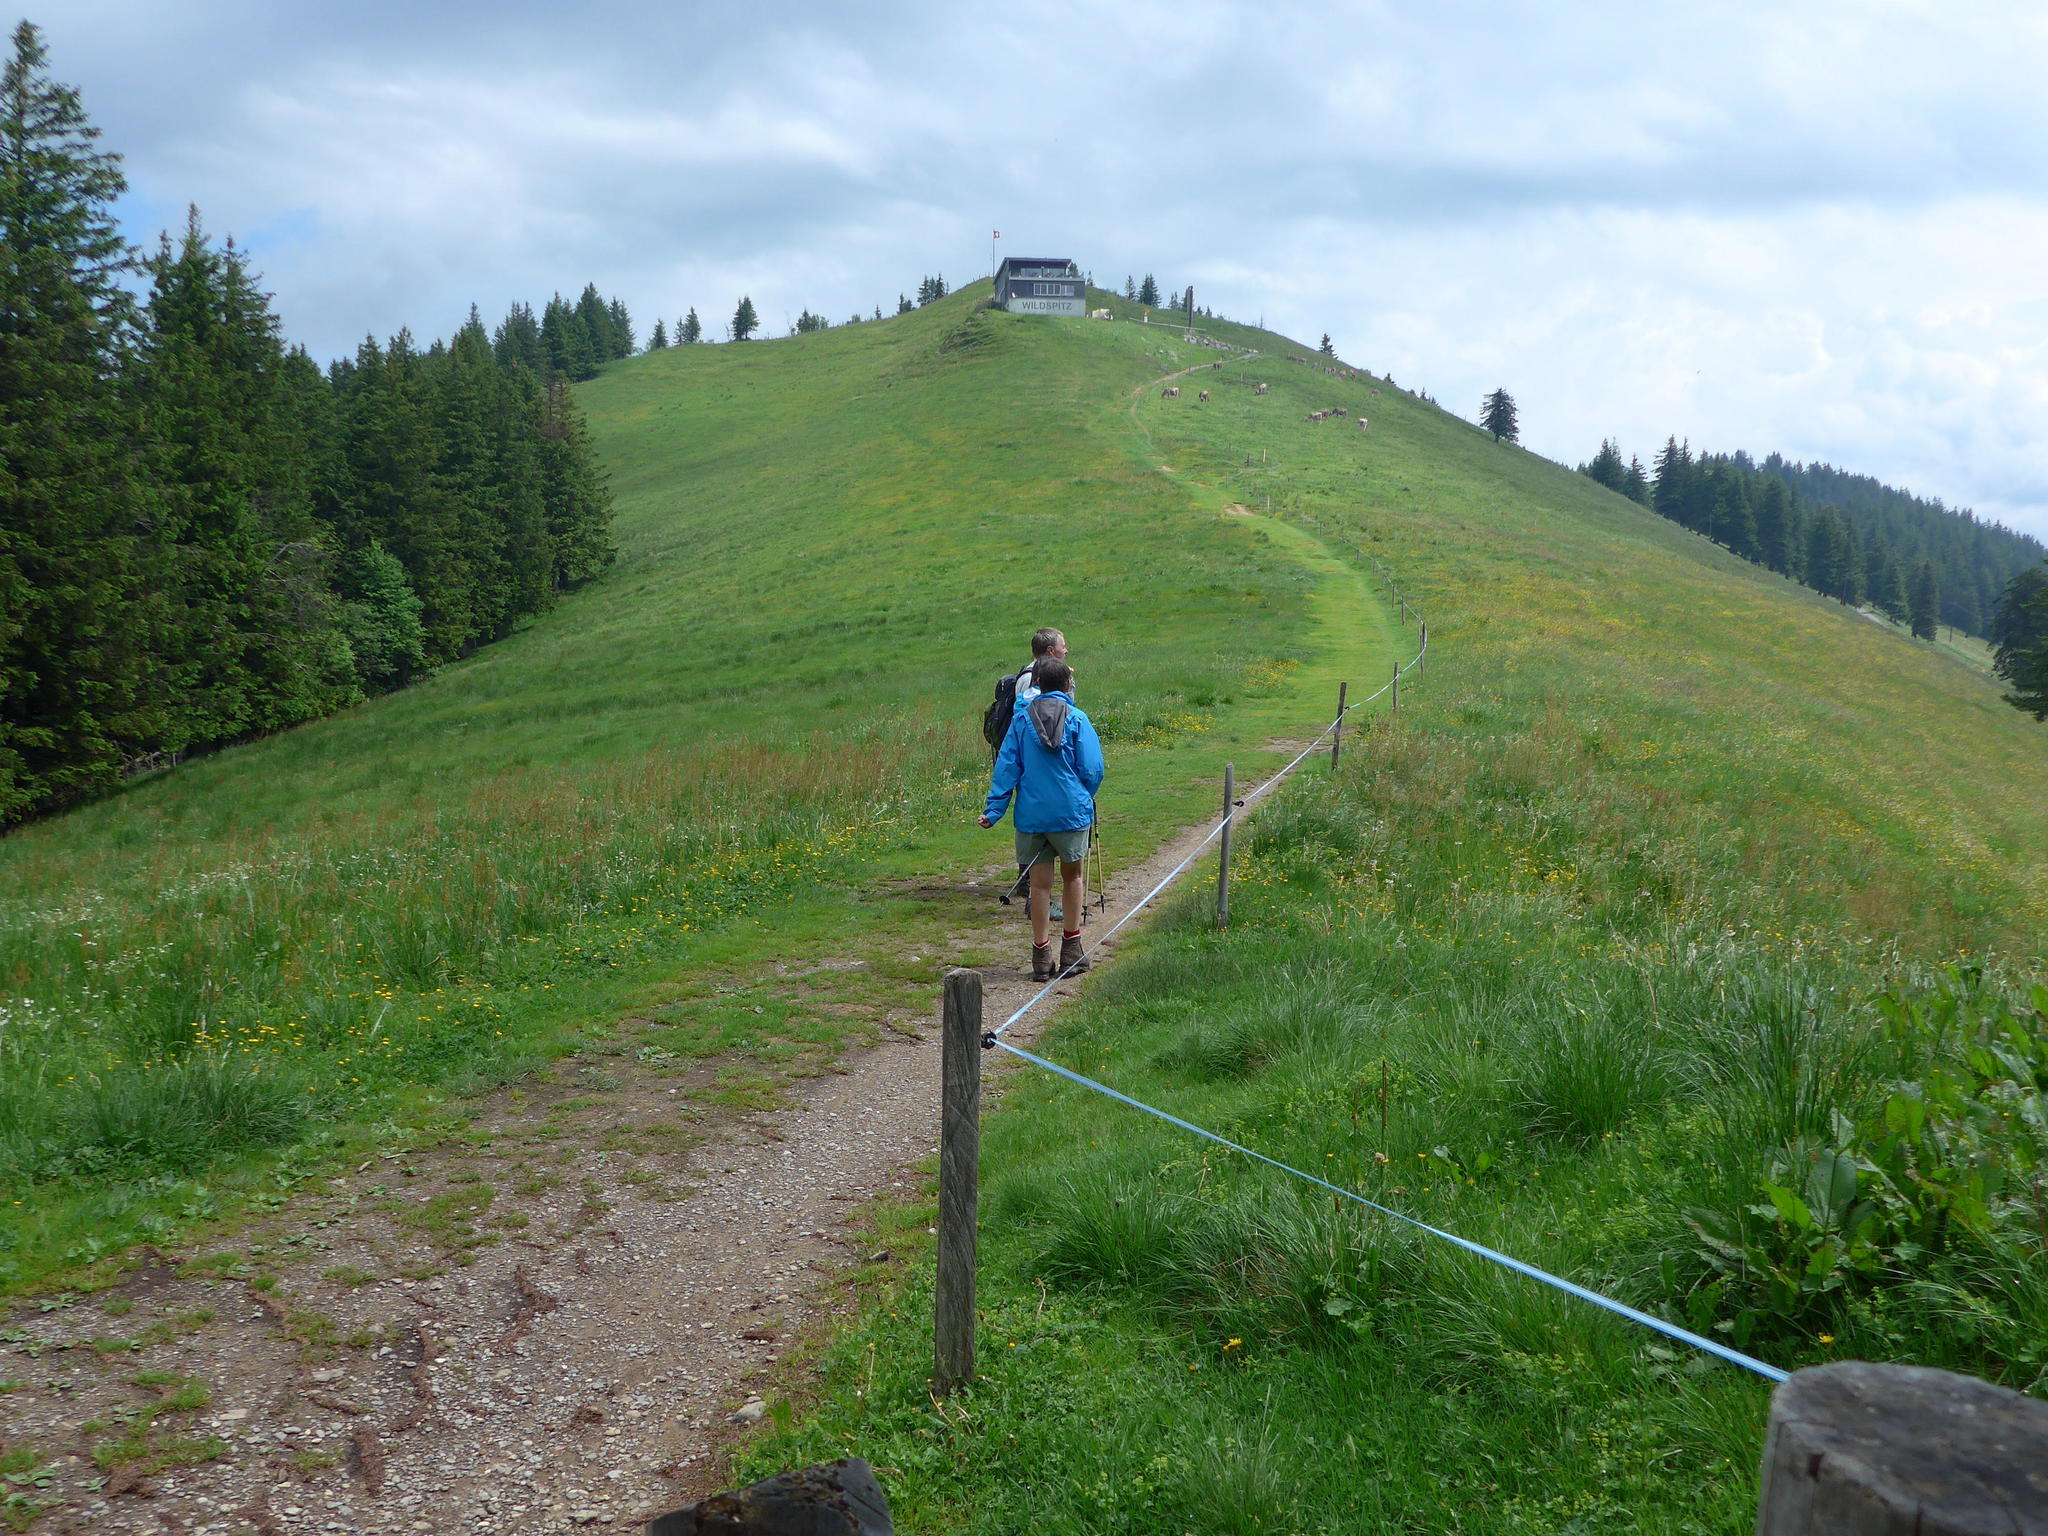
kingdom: Plantae
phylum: Tracheophyta
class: Magnoliopsida
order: Caryophyllales
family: Polygonaceae
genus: Rumex
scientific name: Rumex acetosa
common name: Garden sorrel
